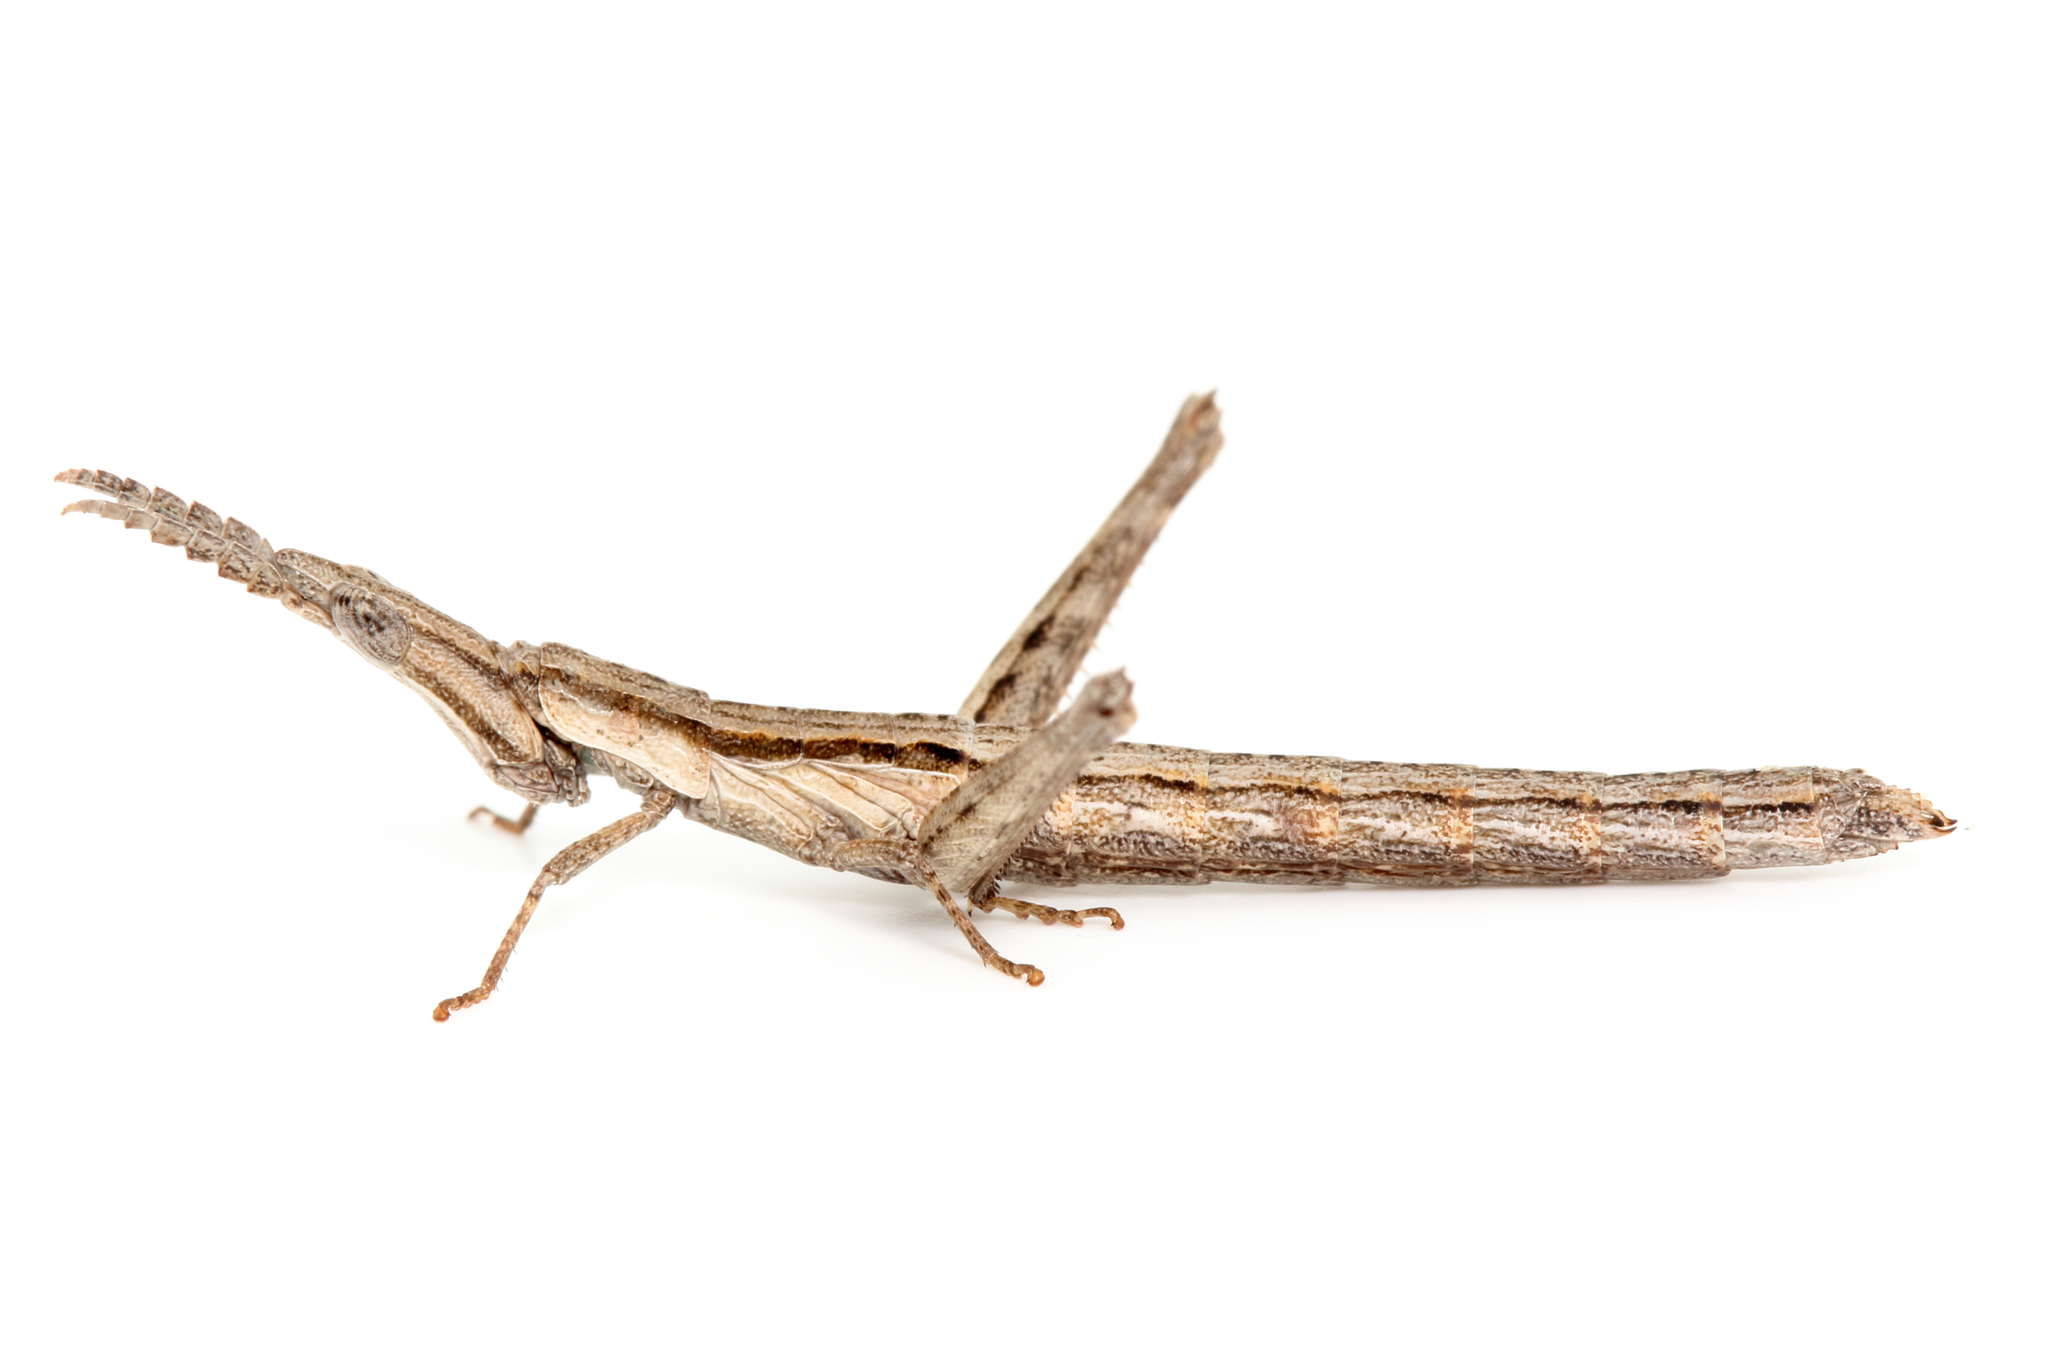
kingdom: Animalia
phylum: Arthropoda
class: Insecta
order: Orthoptera
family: Morabidae
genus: Vandiemenella
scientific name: Vandiemenella viatica
